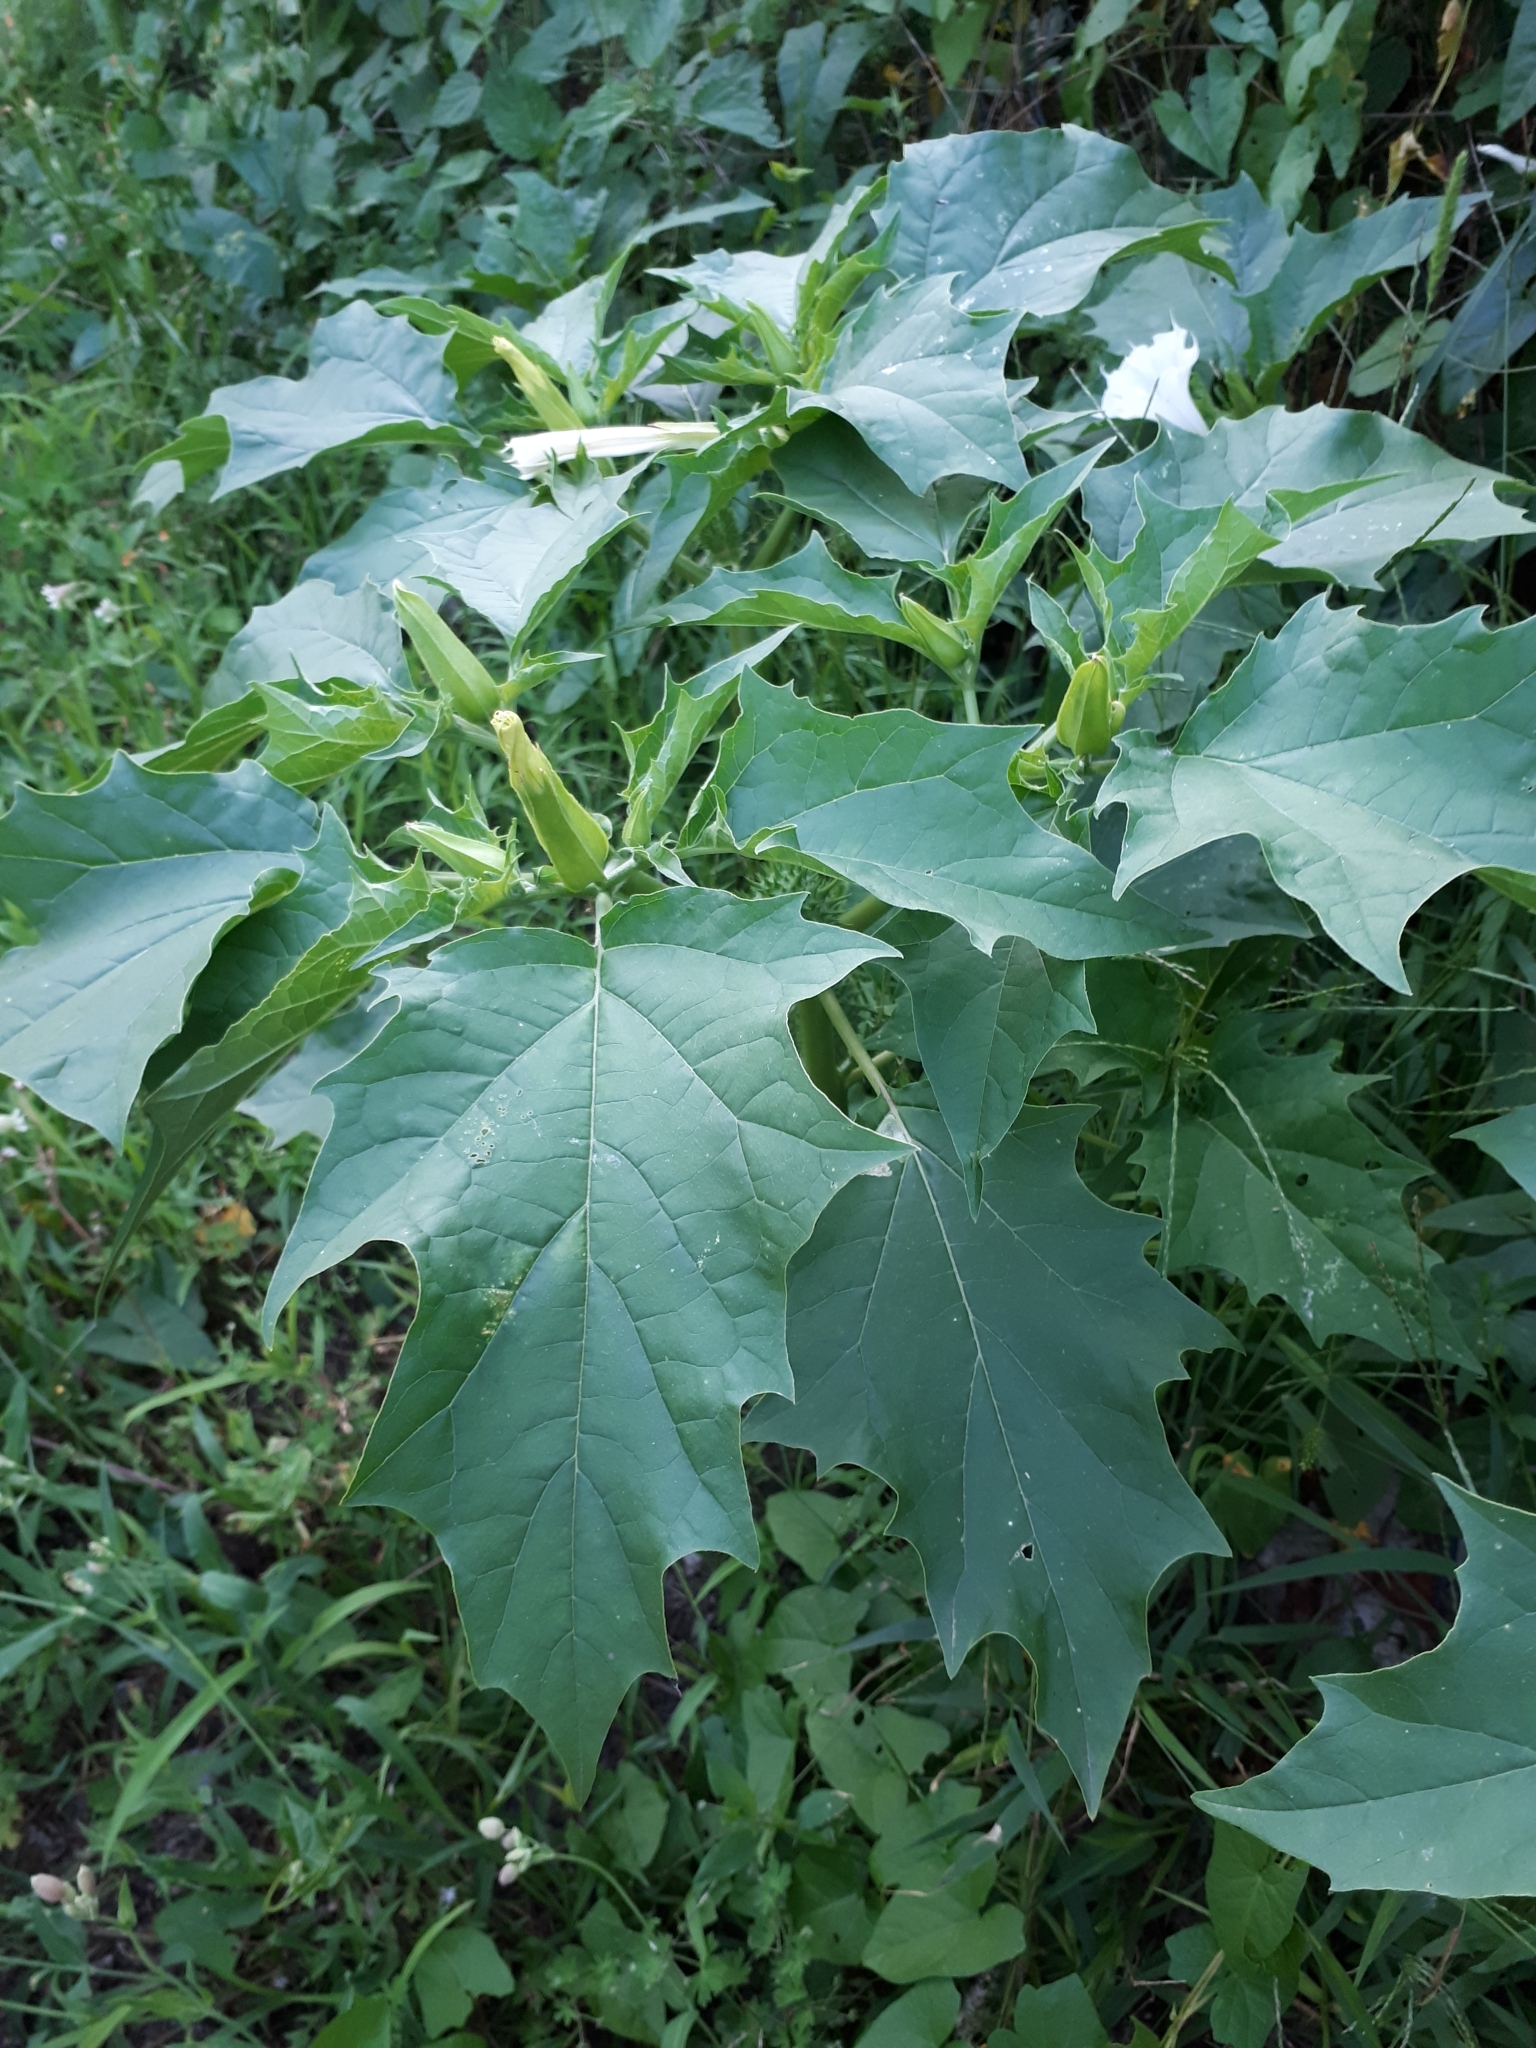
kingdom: Plantae
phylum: Tracheophyta
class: Magnoliopsida
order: Solanales
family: Solanaceae
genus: Datura
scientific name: Datura stramonium
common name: Thorn-apple
